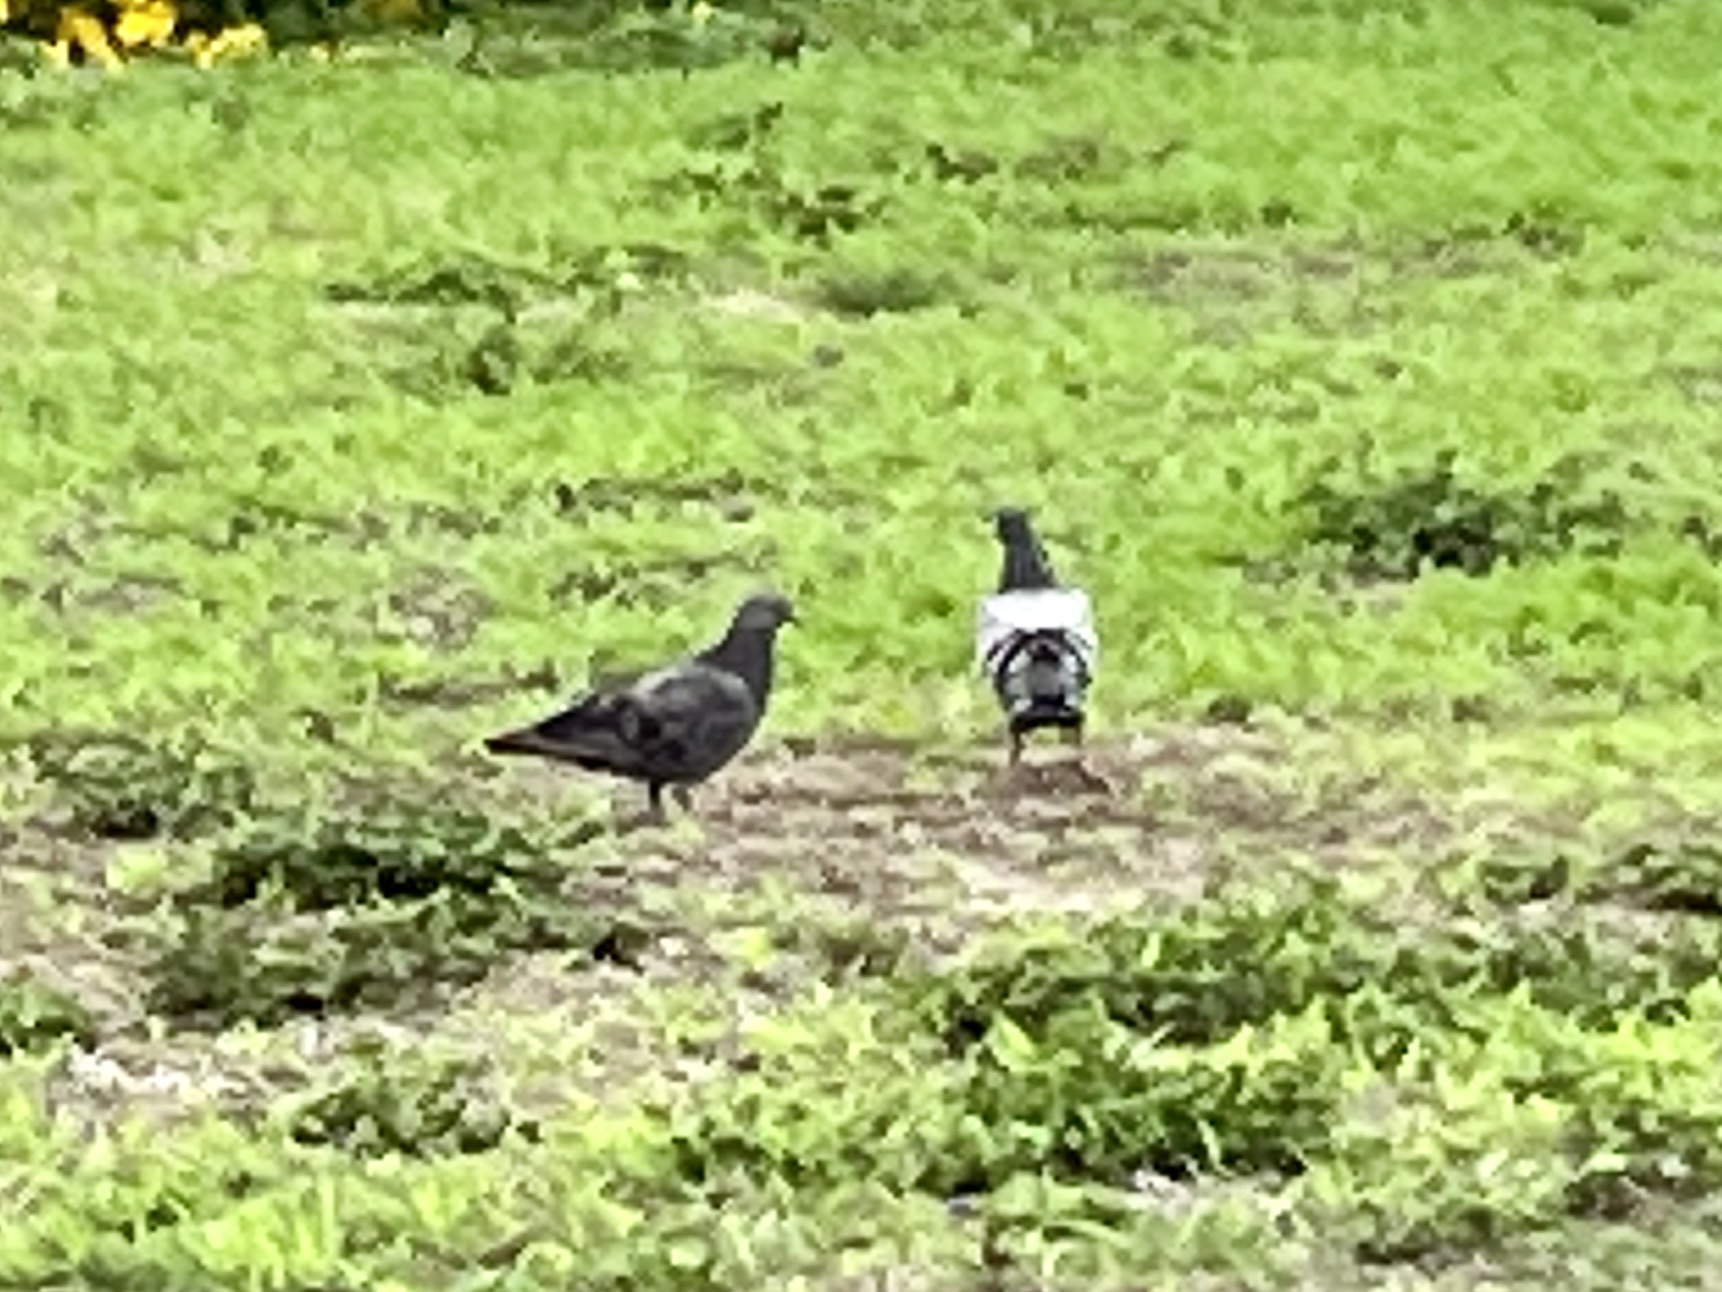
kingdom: Animalia
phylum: Chordata
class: Aves
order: Columbiformes
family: Columbidae
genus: Columba
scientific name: Columba livia
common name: Rock pigeon
